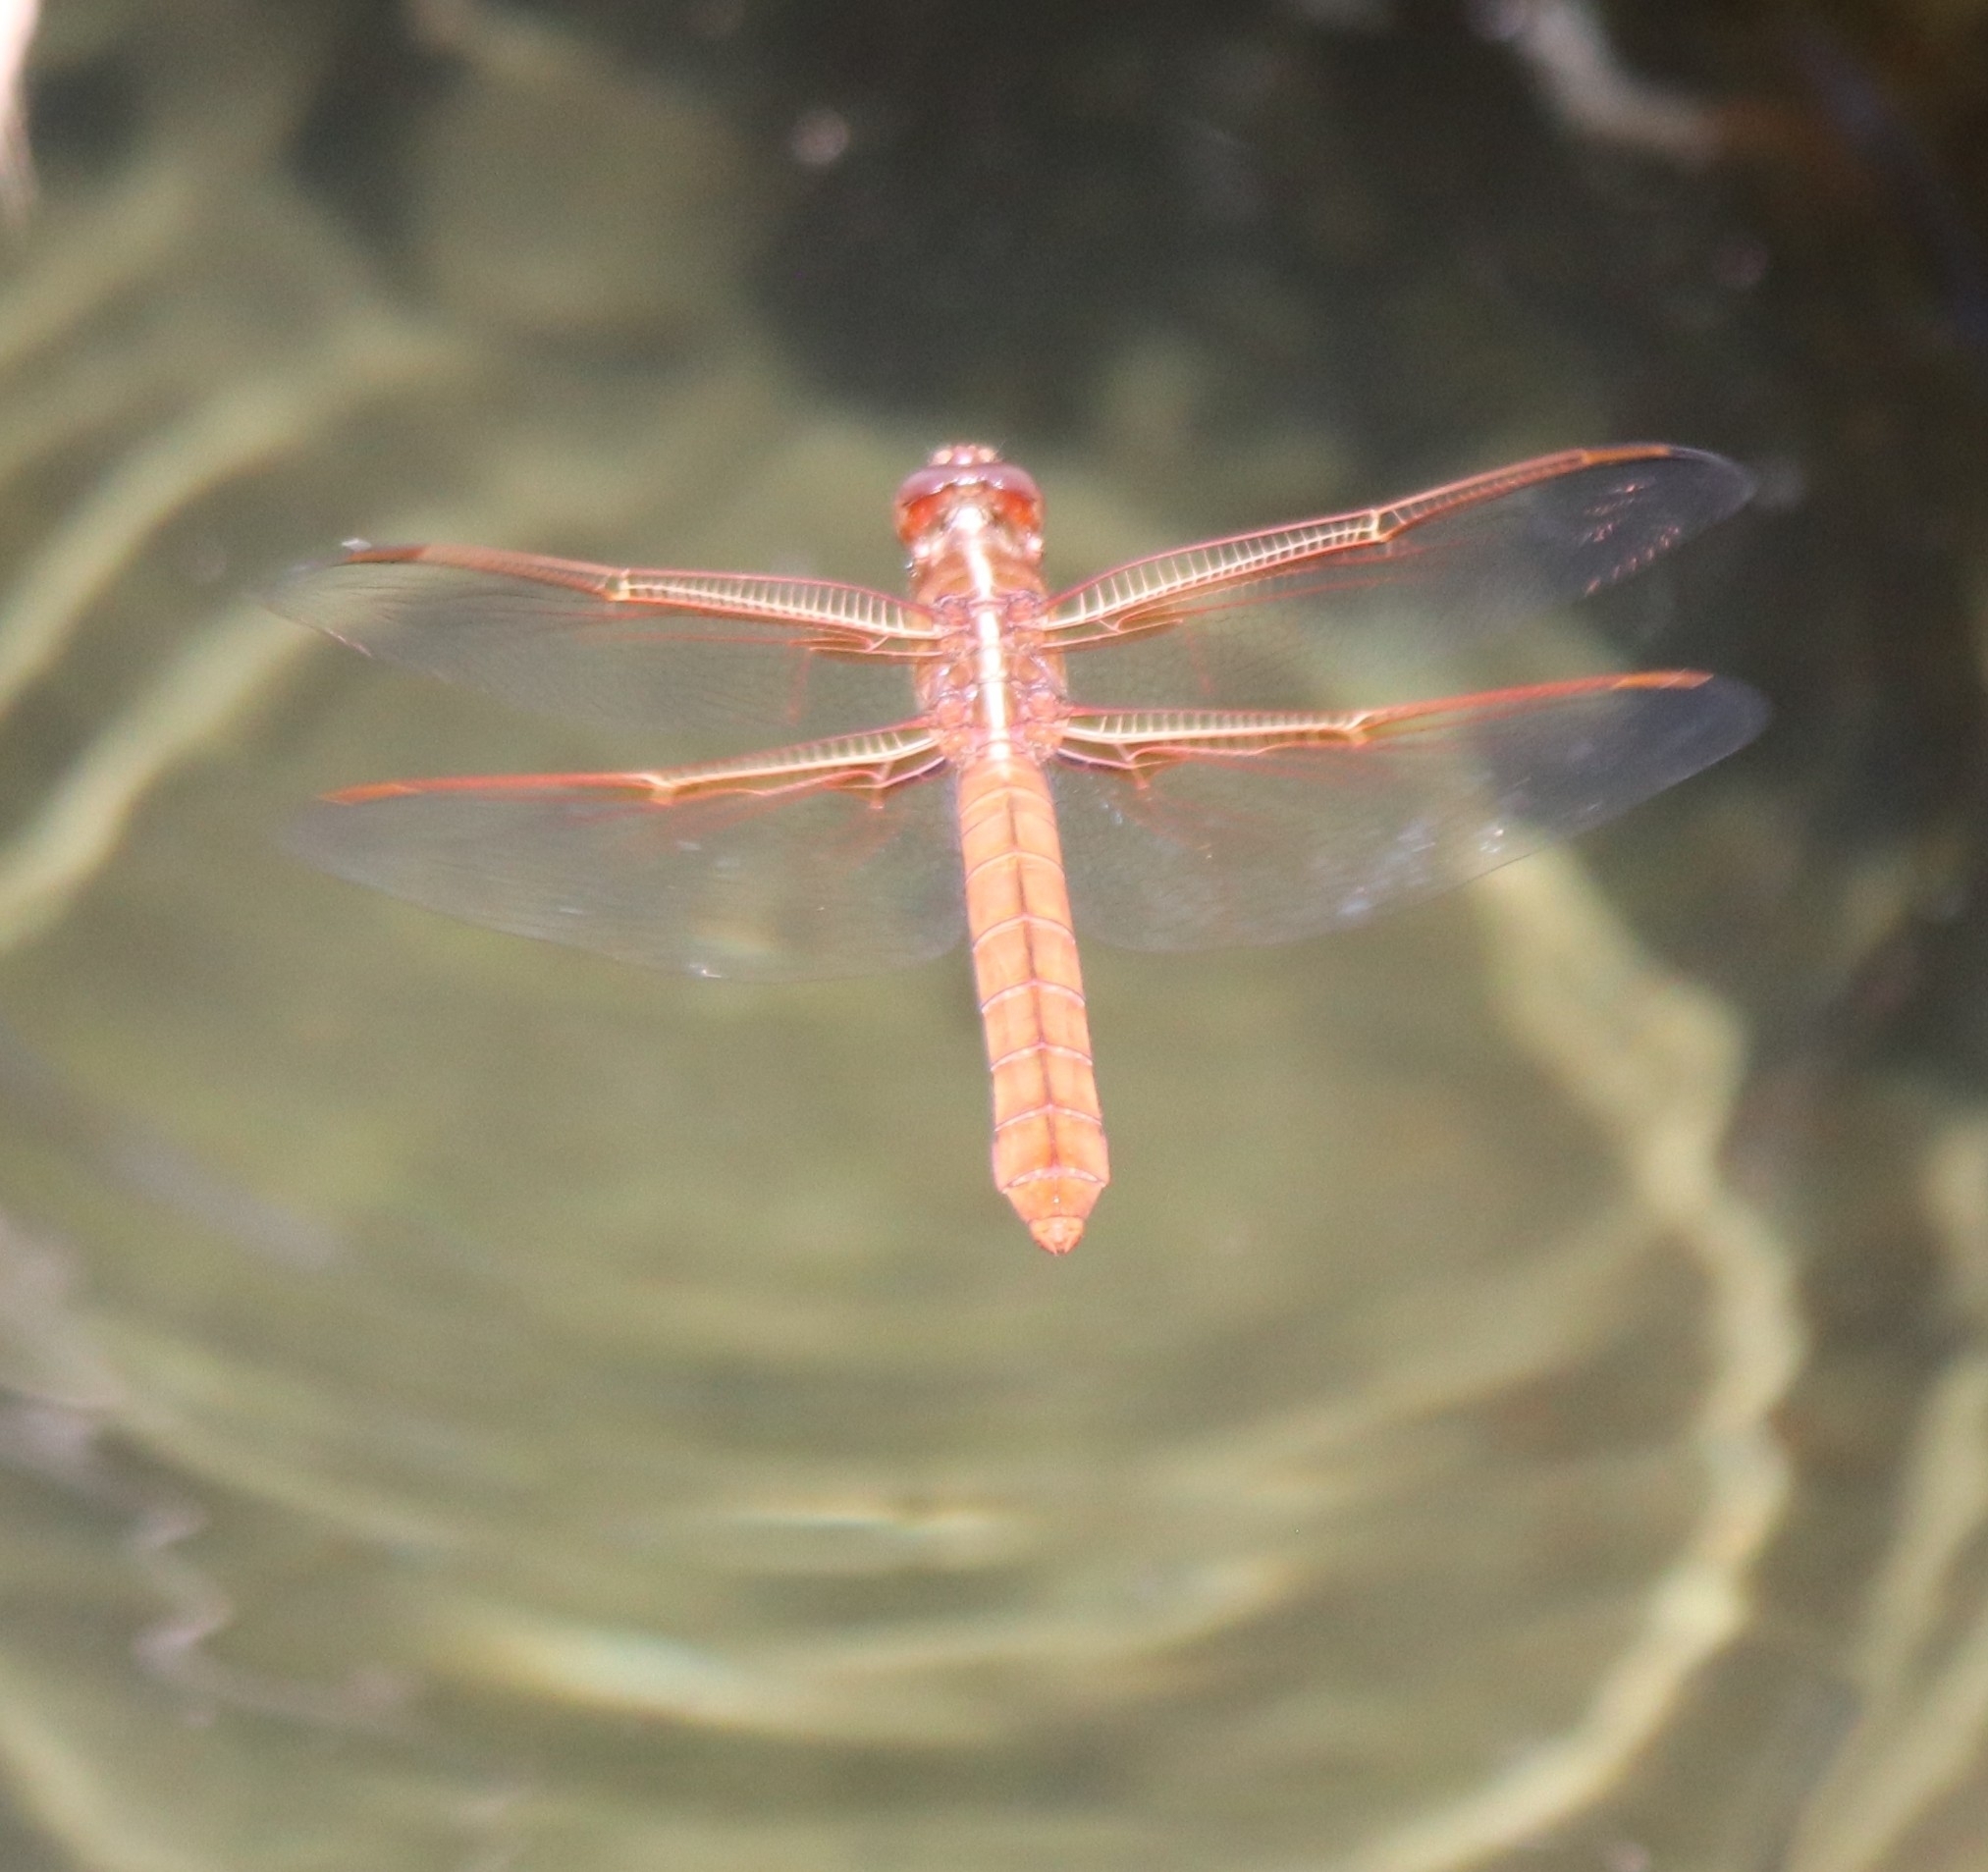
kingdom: Animalia
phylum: Arthropoda
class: Insecta
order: Odonata
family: Libellulidae
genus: Libellula
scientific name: Libellula saturata
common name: Flame skimmer
